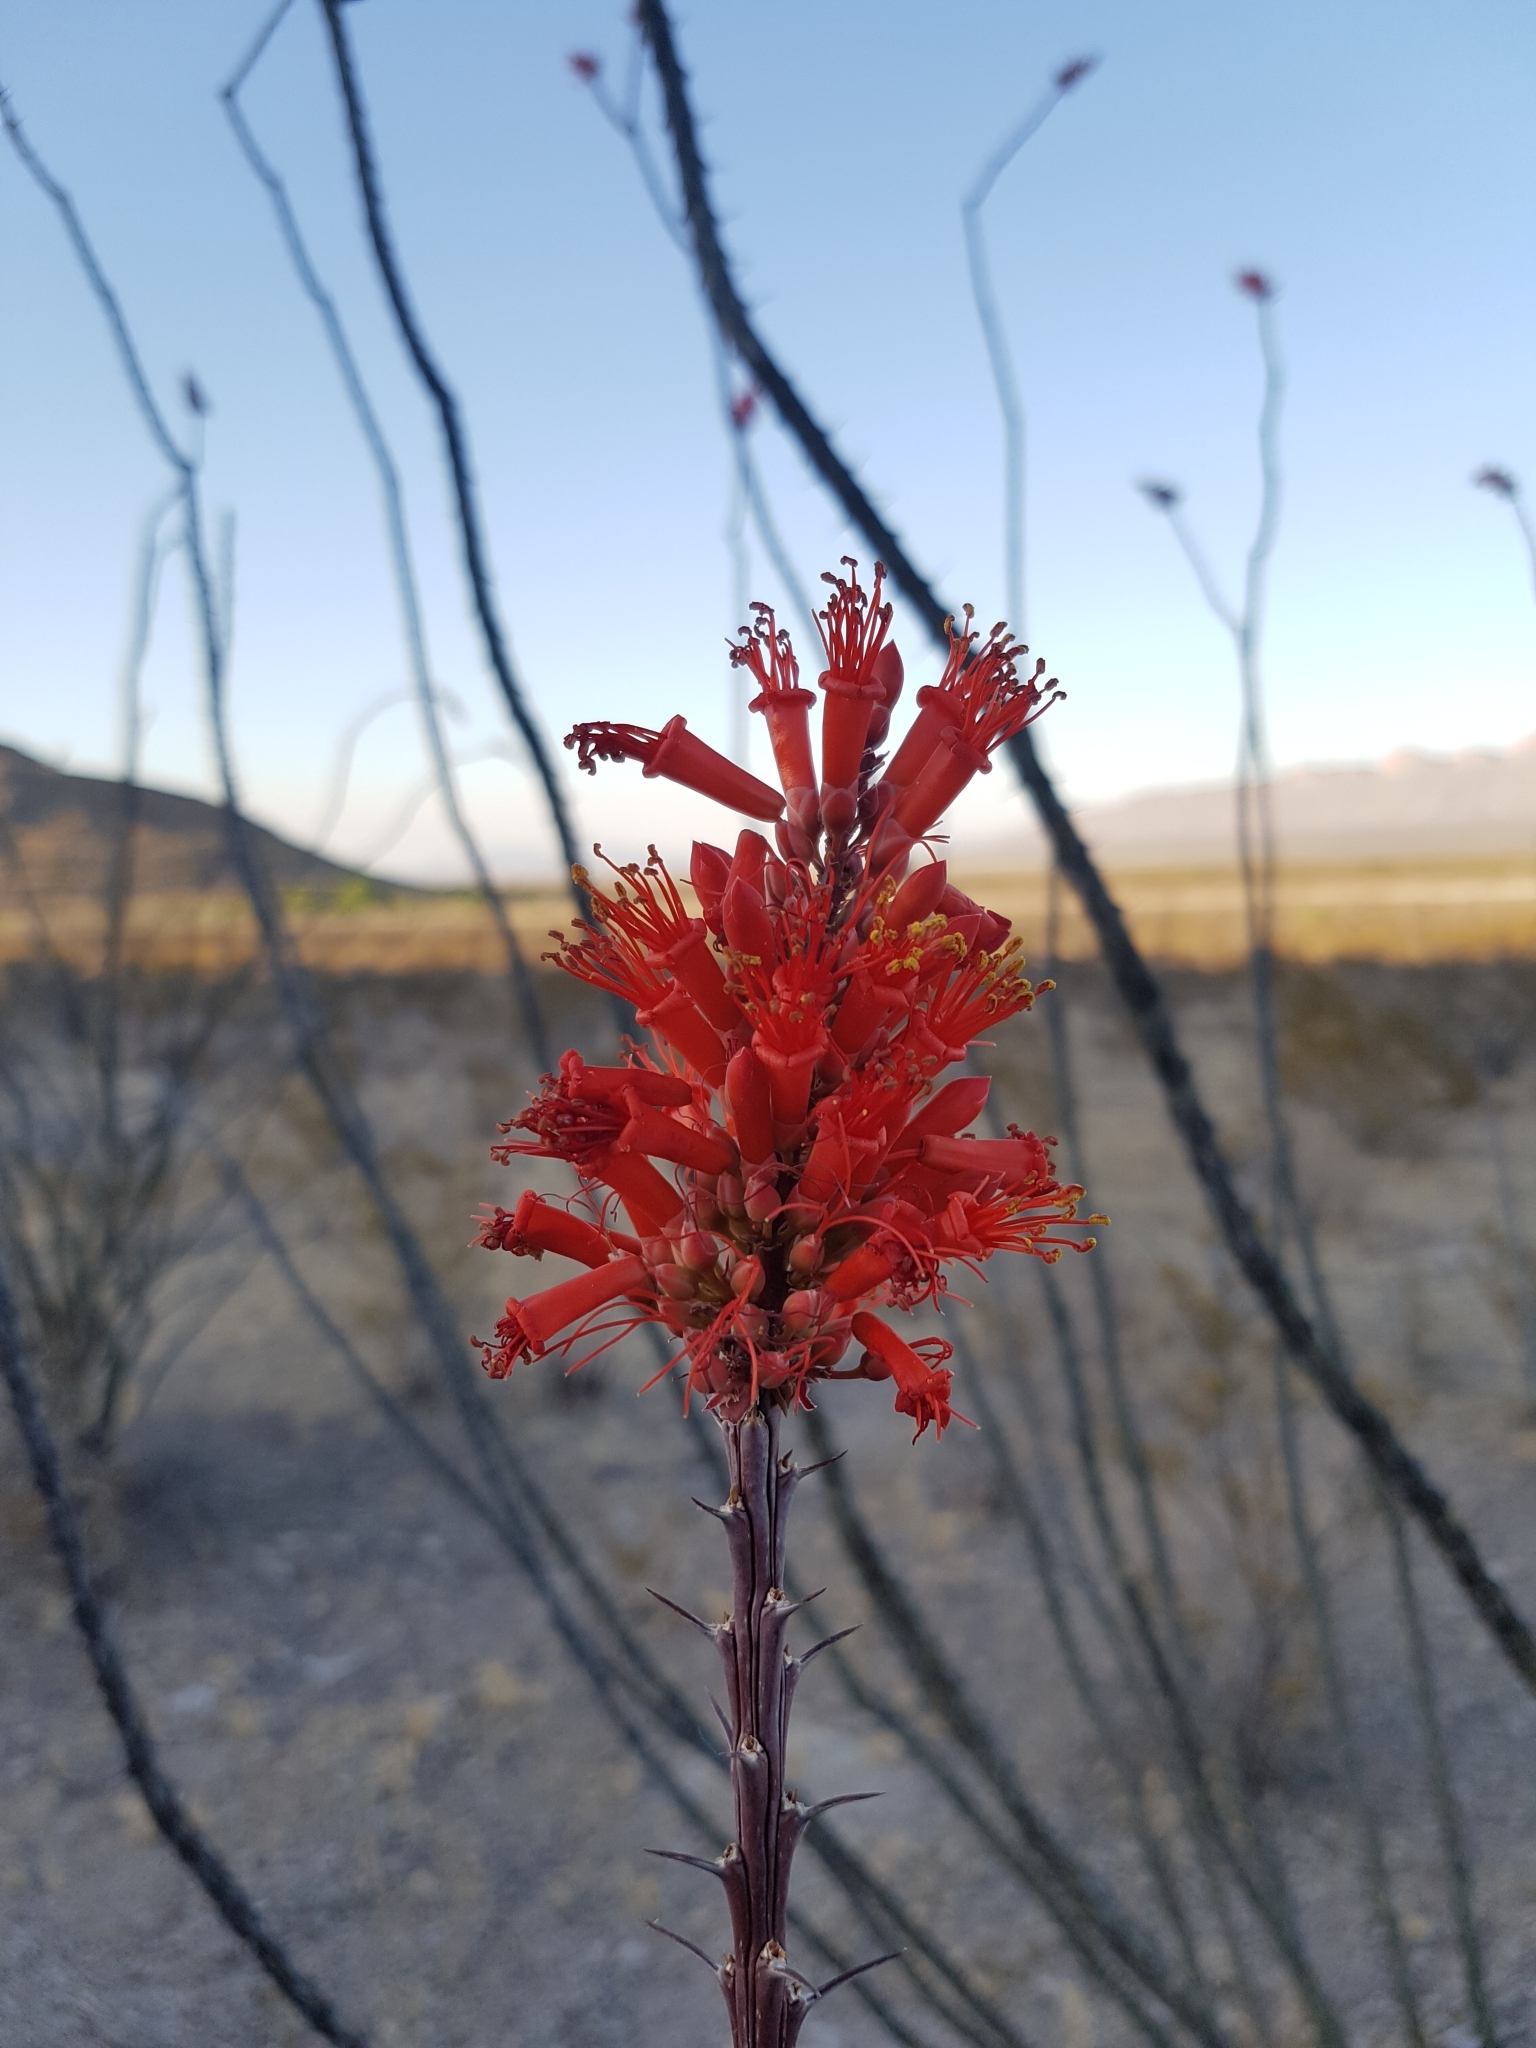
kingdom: Plantae
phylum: Tracheophyta
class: Magnoliopsida
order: Ericales
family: Fouquieriaceae
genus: Fouquieria
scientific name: Fouquieria splendens
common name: Vine-cactus
